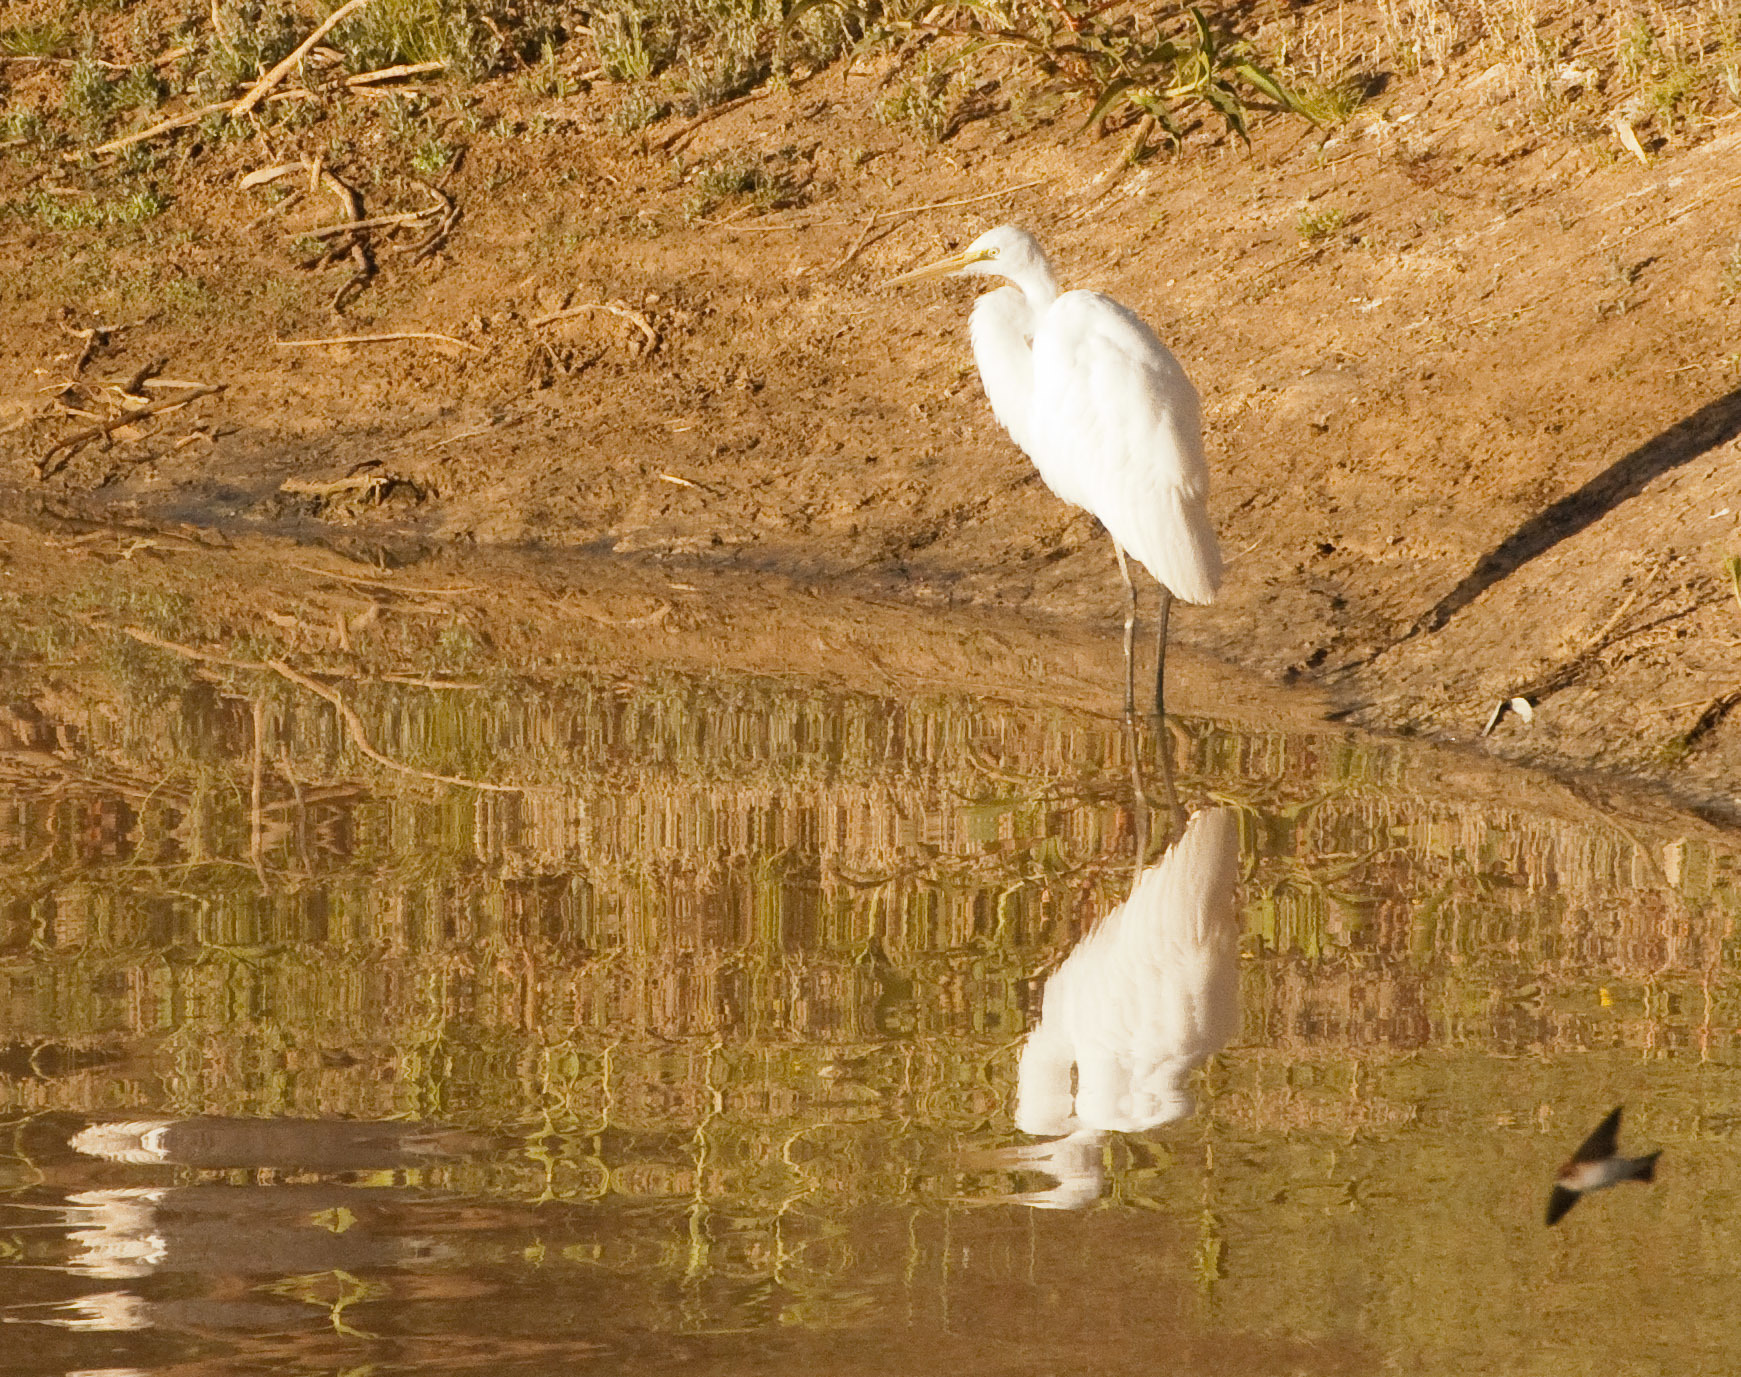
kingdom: Animalia
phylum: Chordata
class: Aves
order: Pelecaniformes
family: Ardeidae
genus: Ardea
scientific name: Ardea alba
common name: Great egret
